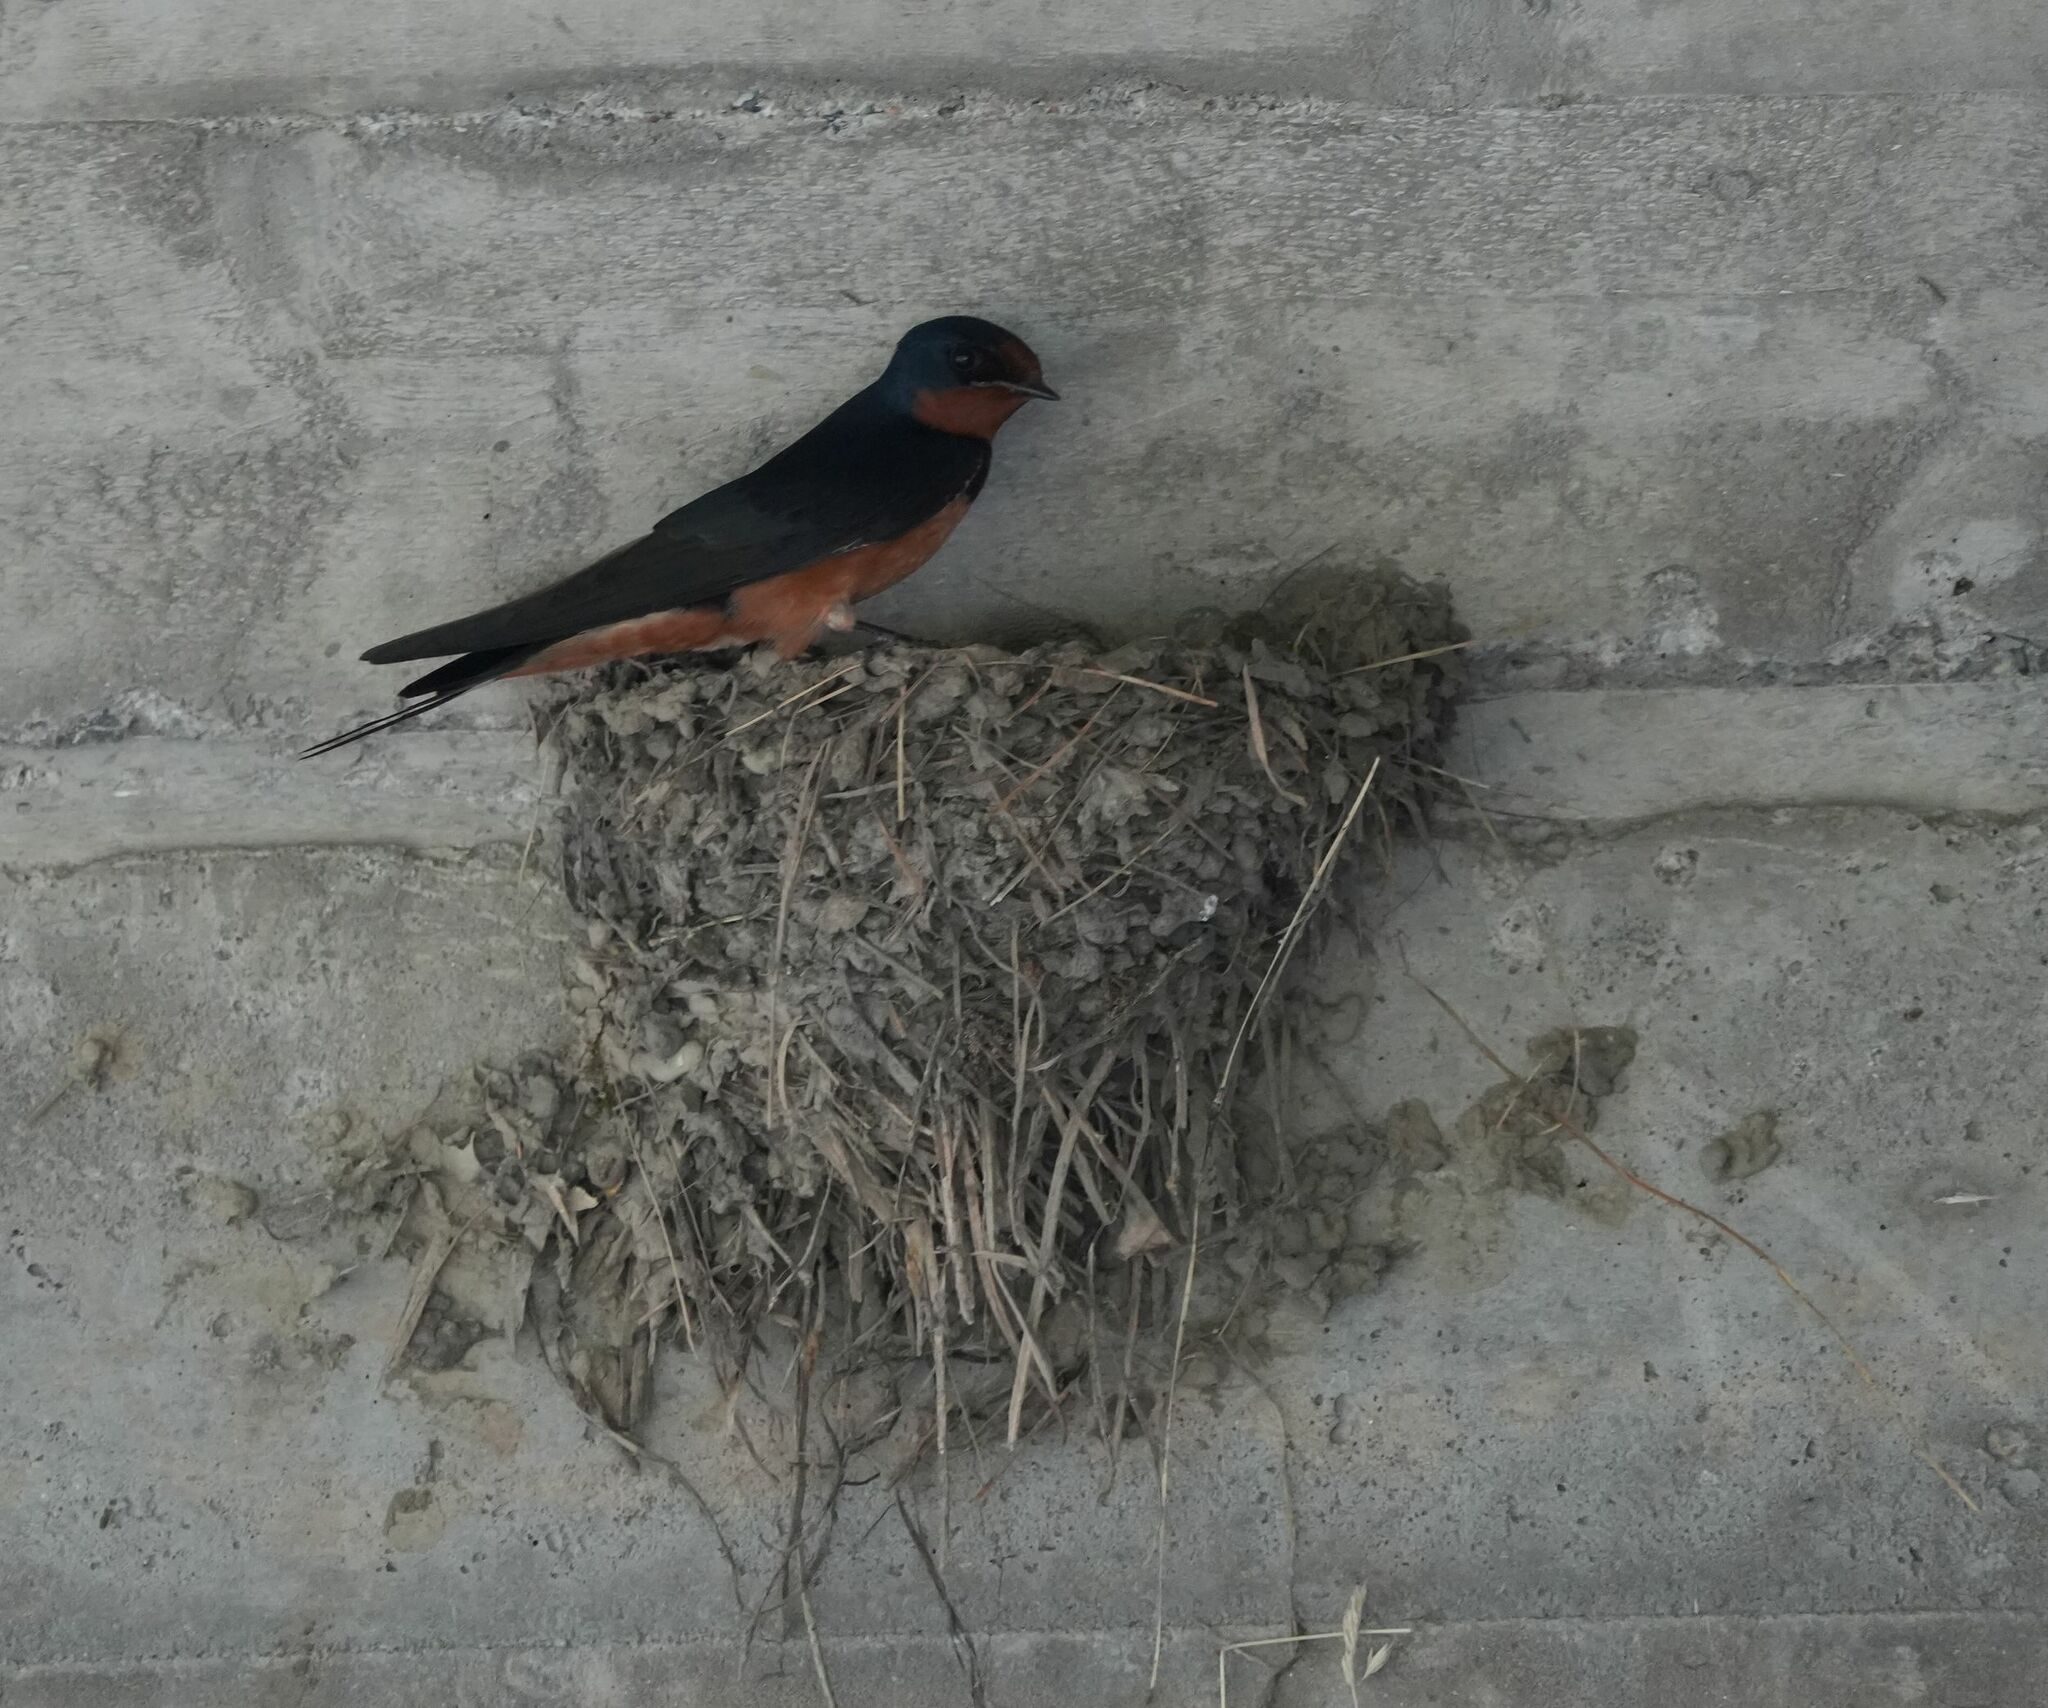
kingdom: Animalia
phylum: Chordata
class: Aves
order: Passeriformes
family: Hirundinidae
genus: Hirundo
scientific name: Hirundo rustica
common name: Barn swallow
